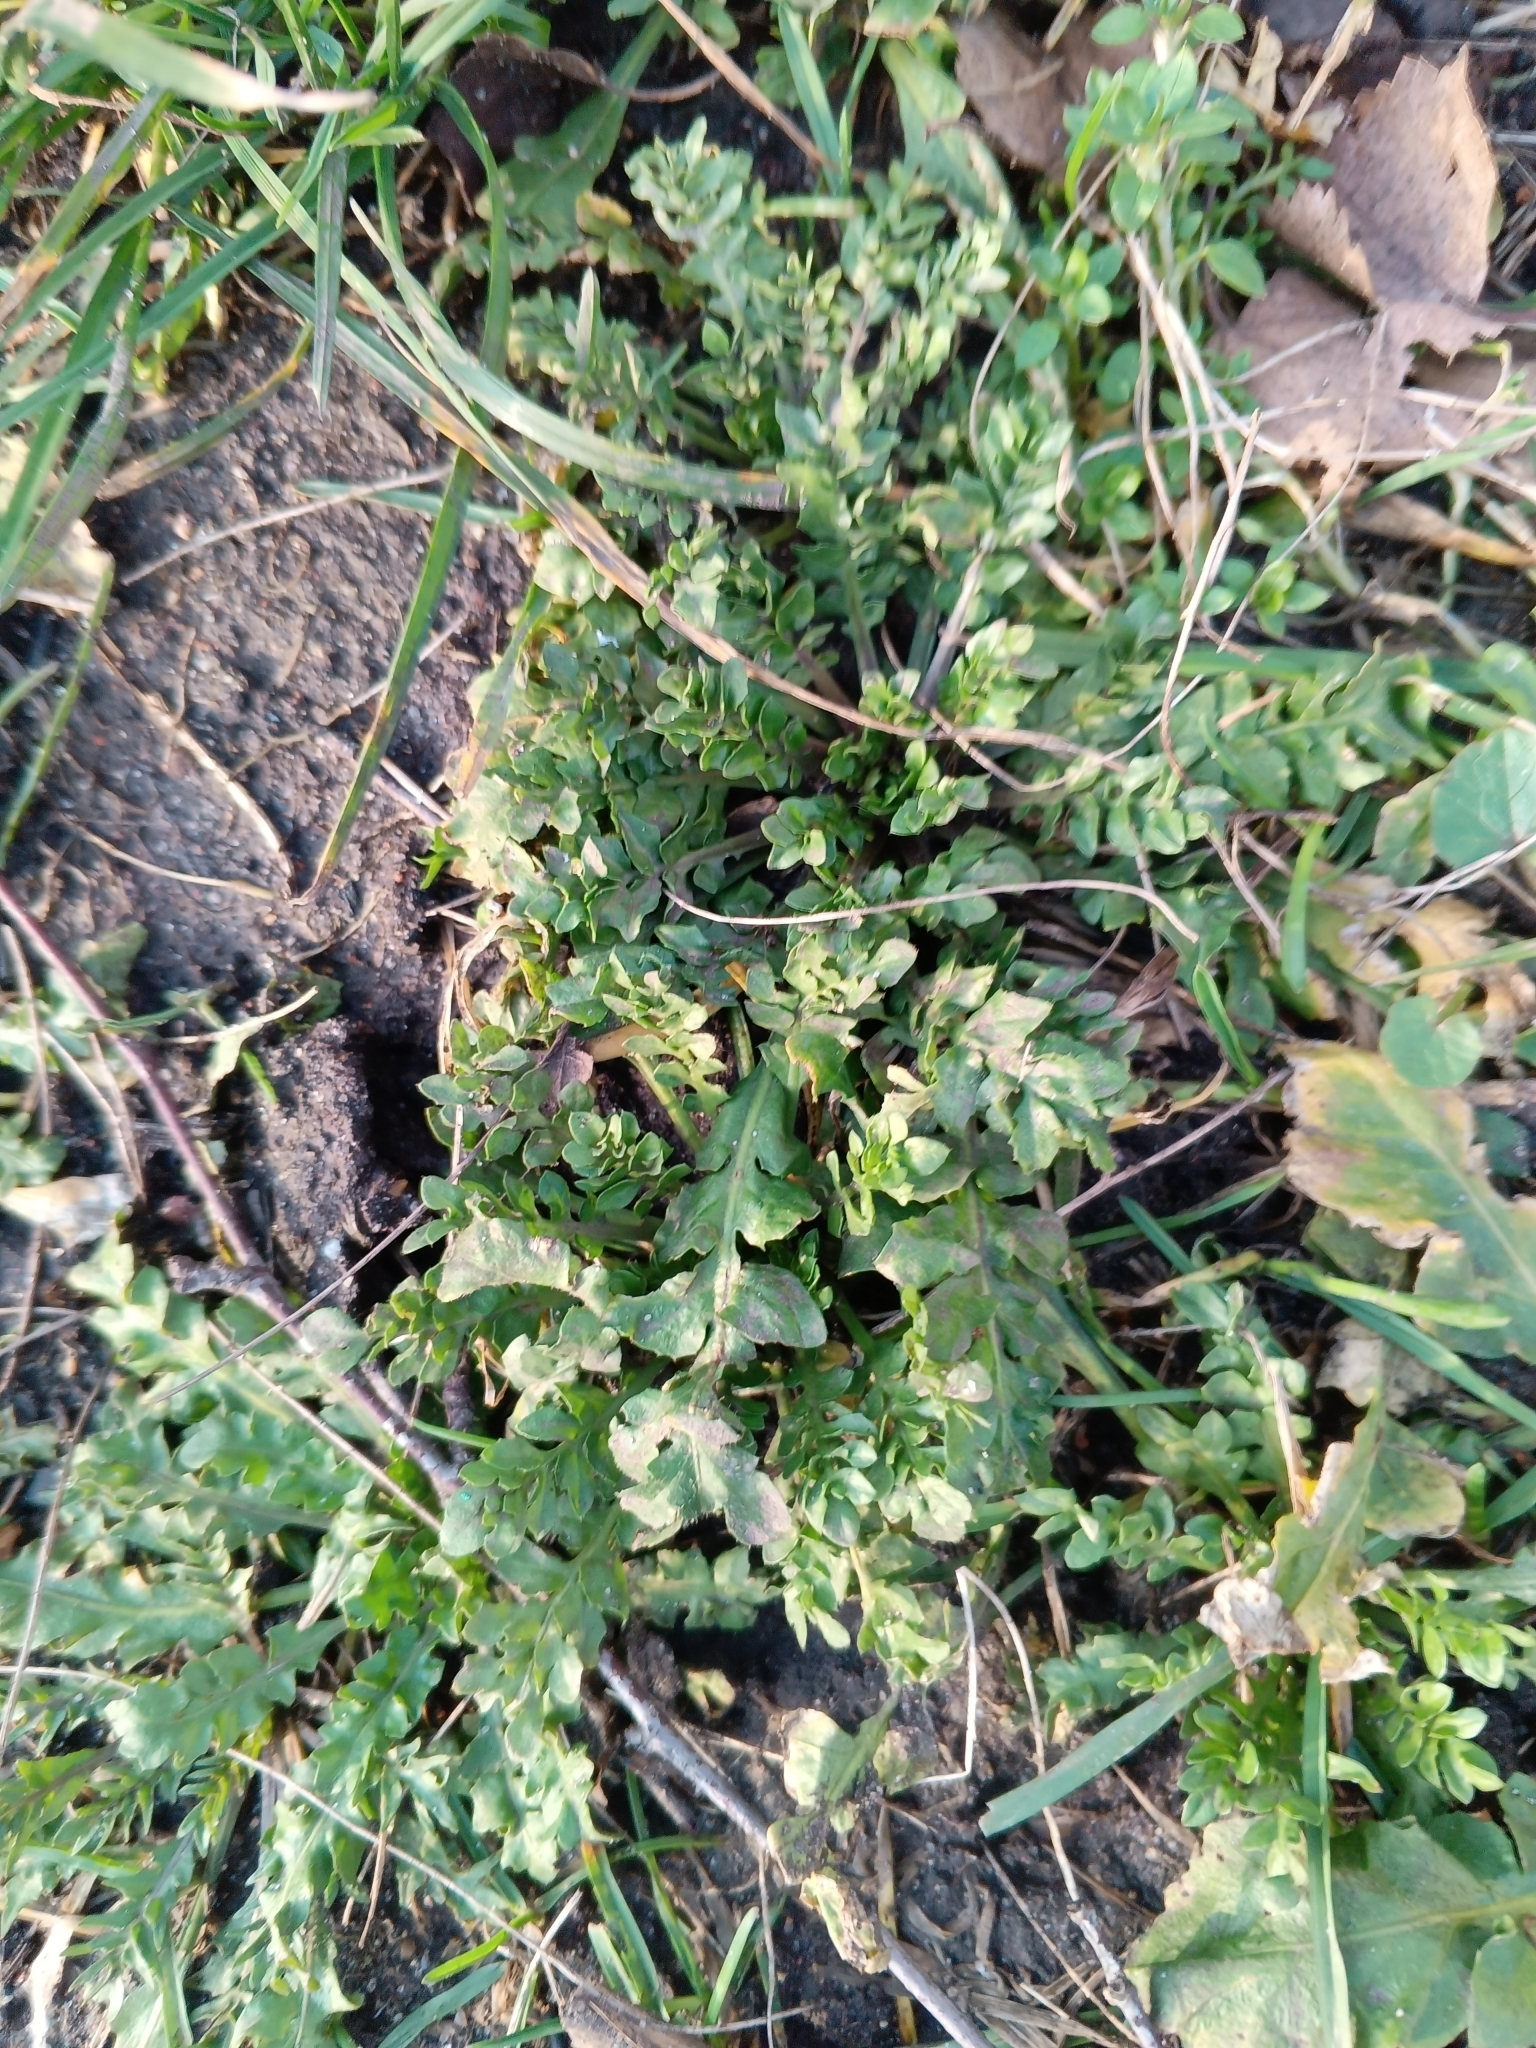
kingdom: Plantae
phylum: Tracheophyta
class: Magnoliopsida
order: Brassicales
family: Brassicaceae
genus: Capsella
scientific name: Capsella bursa-pastoris
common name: Shepherd's purse
